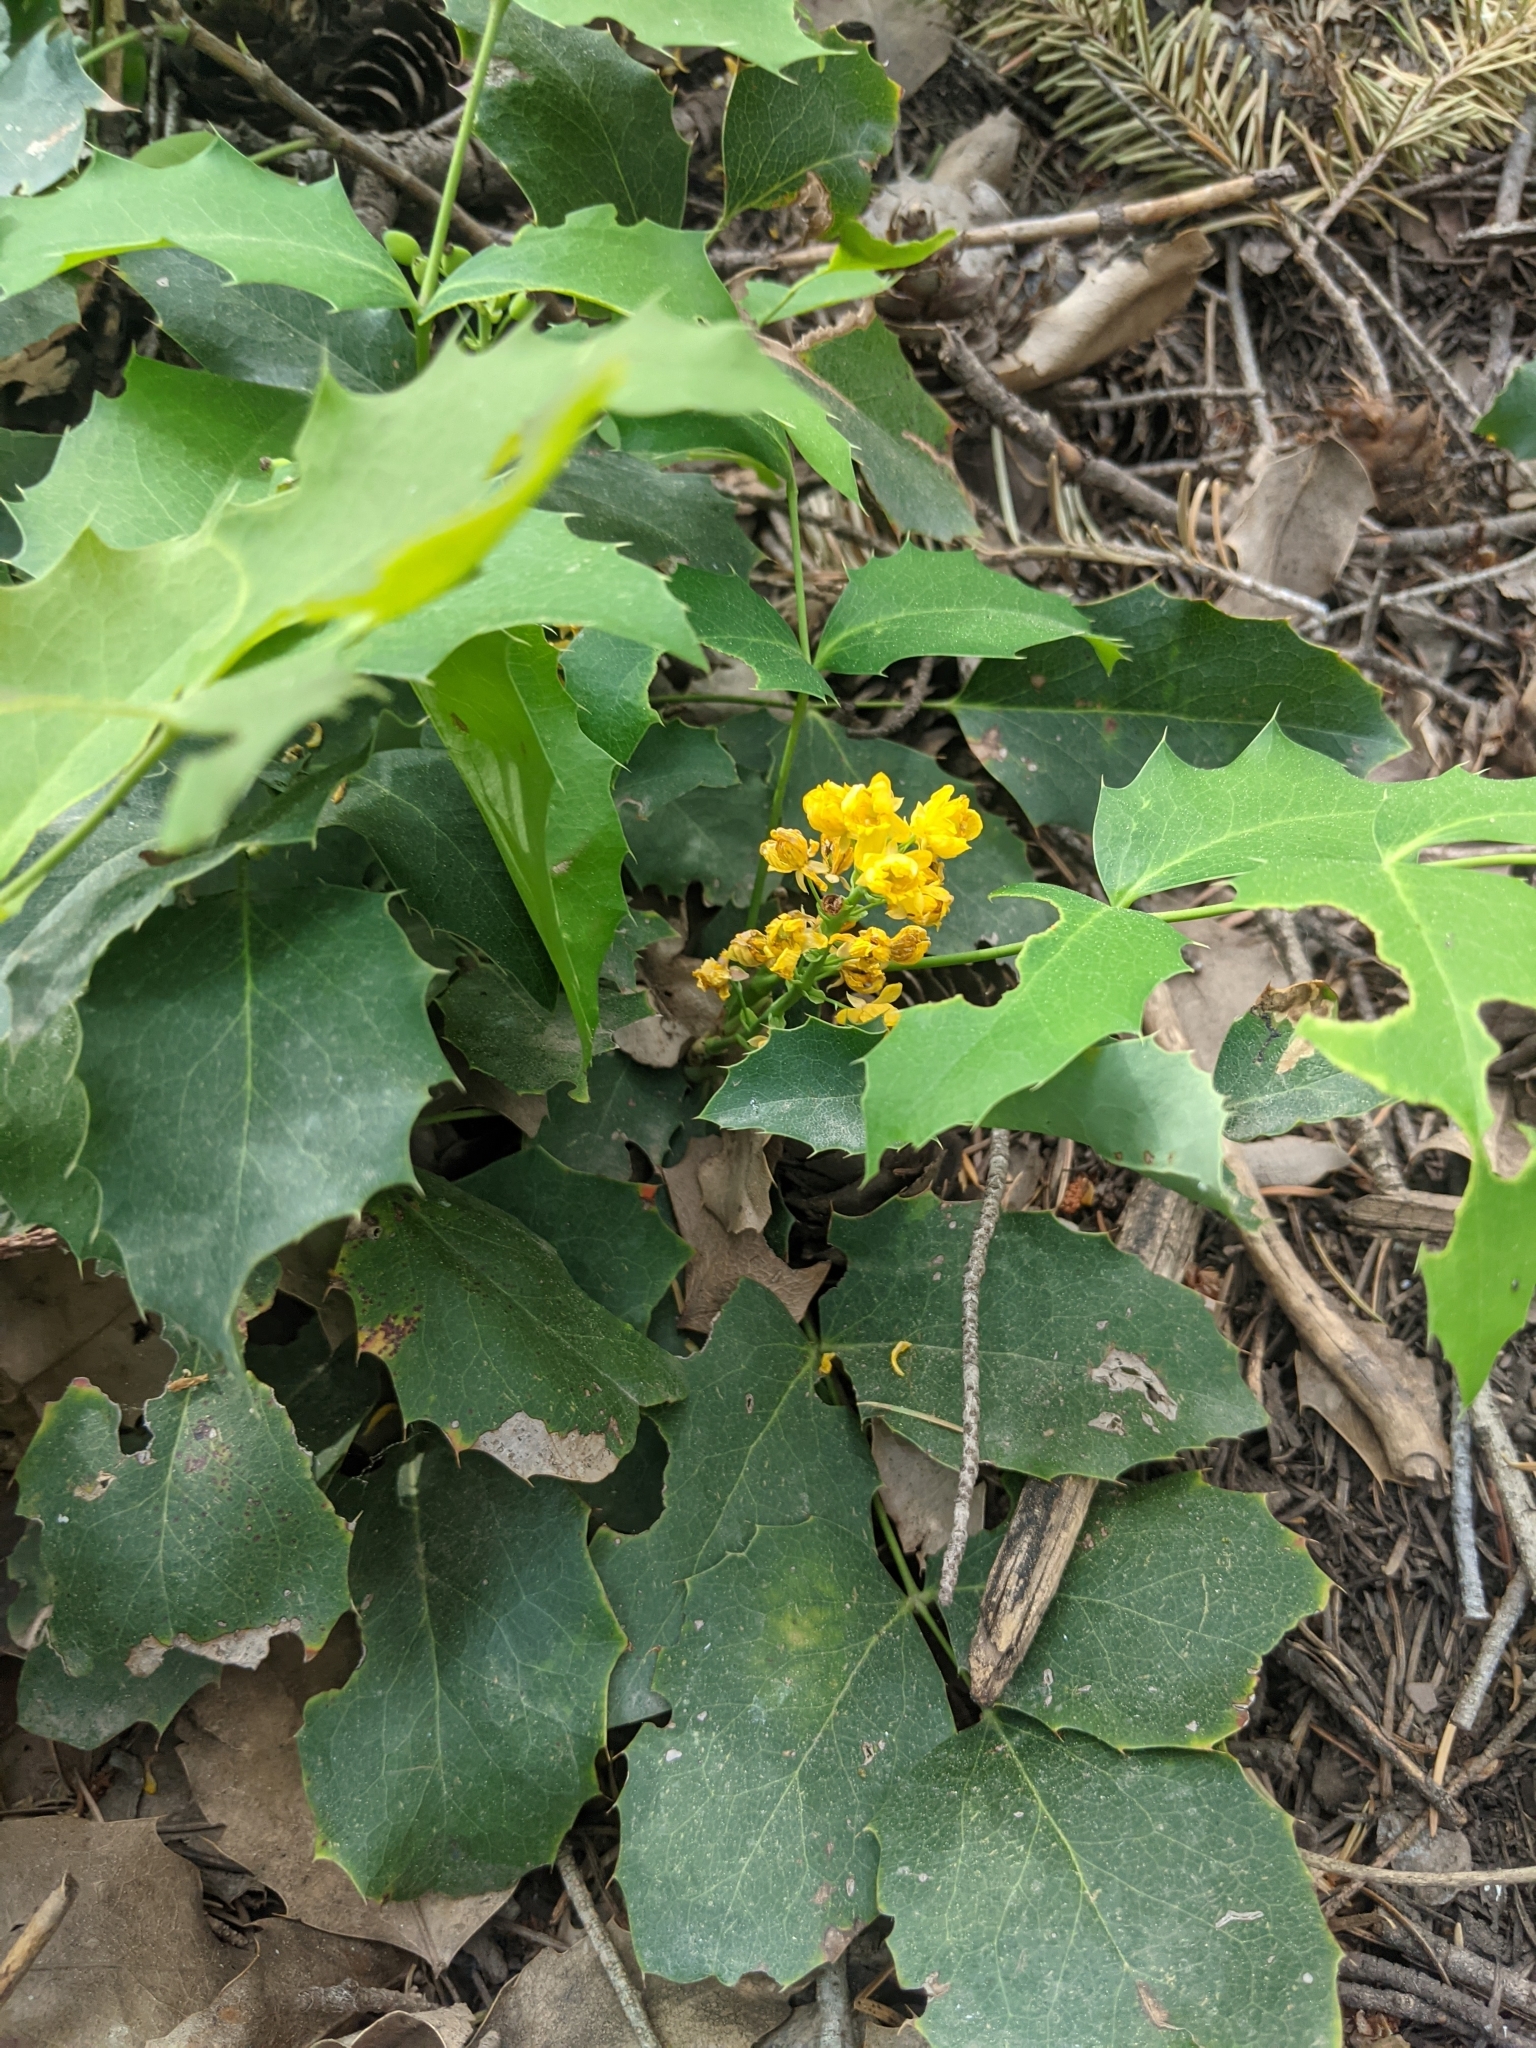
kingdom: Plantae
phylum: Tracheophyta
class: Magnoliopsida
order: Ranunculales
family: Berberidaceae
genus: Mahonia
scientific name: Mahonia repens
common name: Creeping oregon-grape
